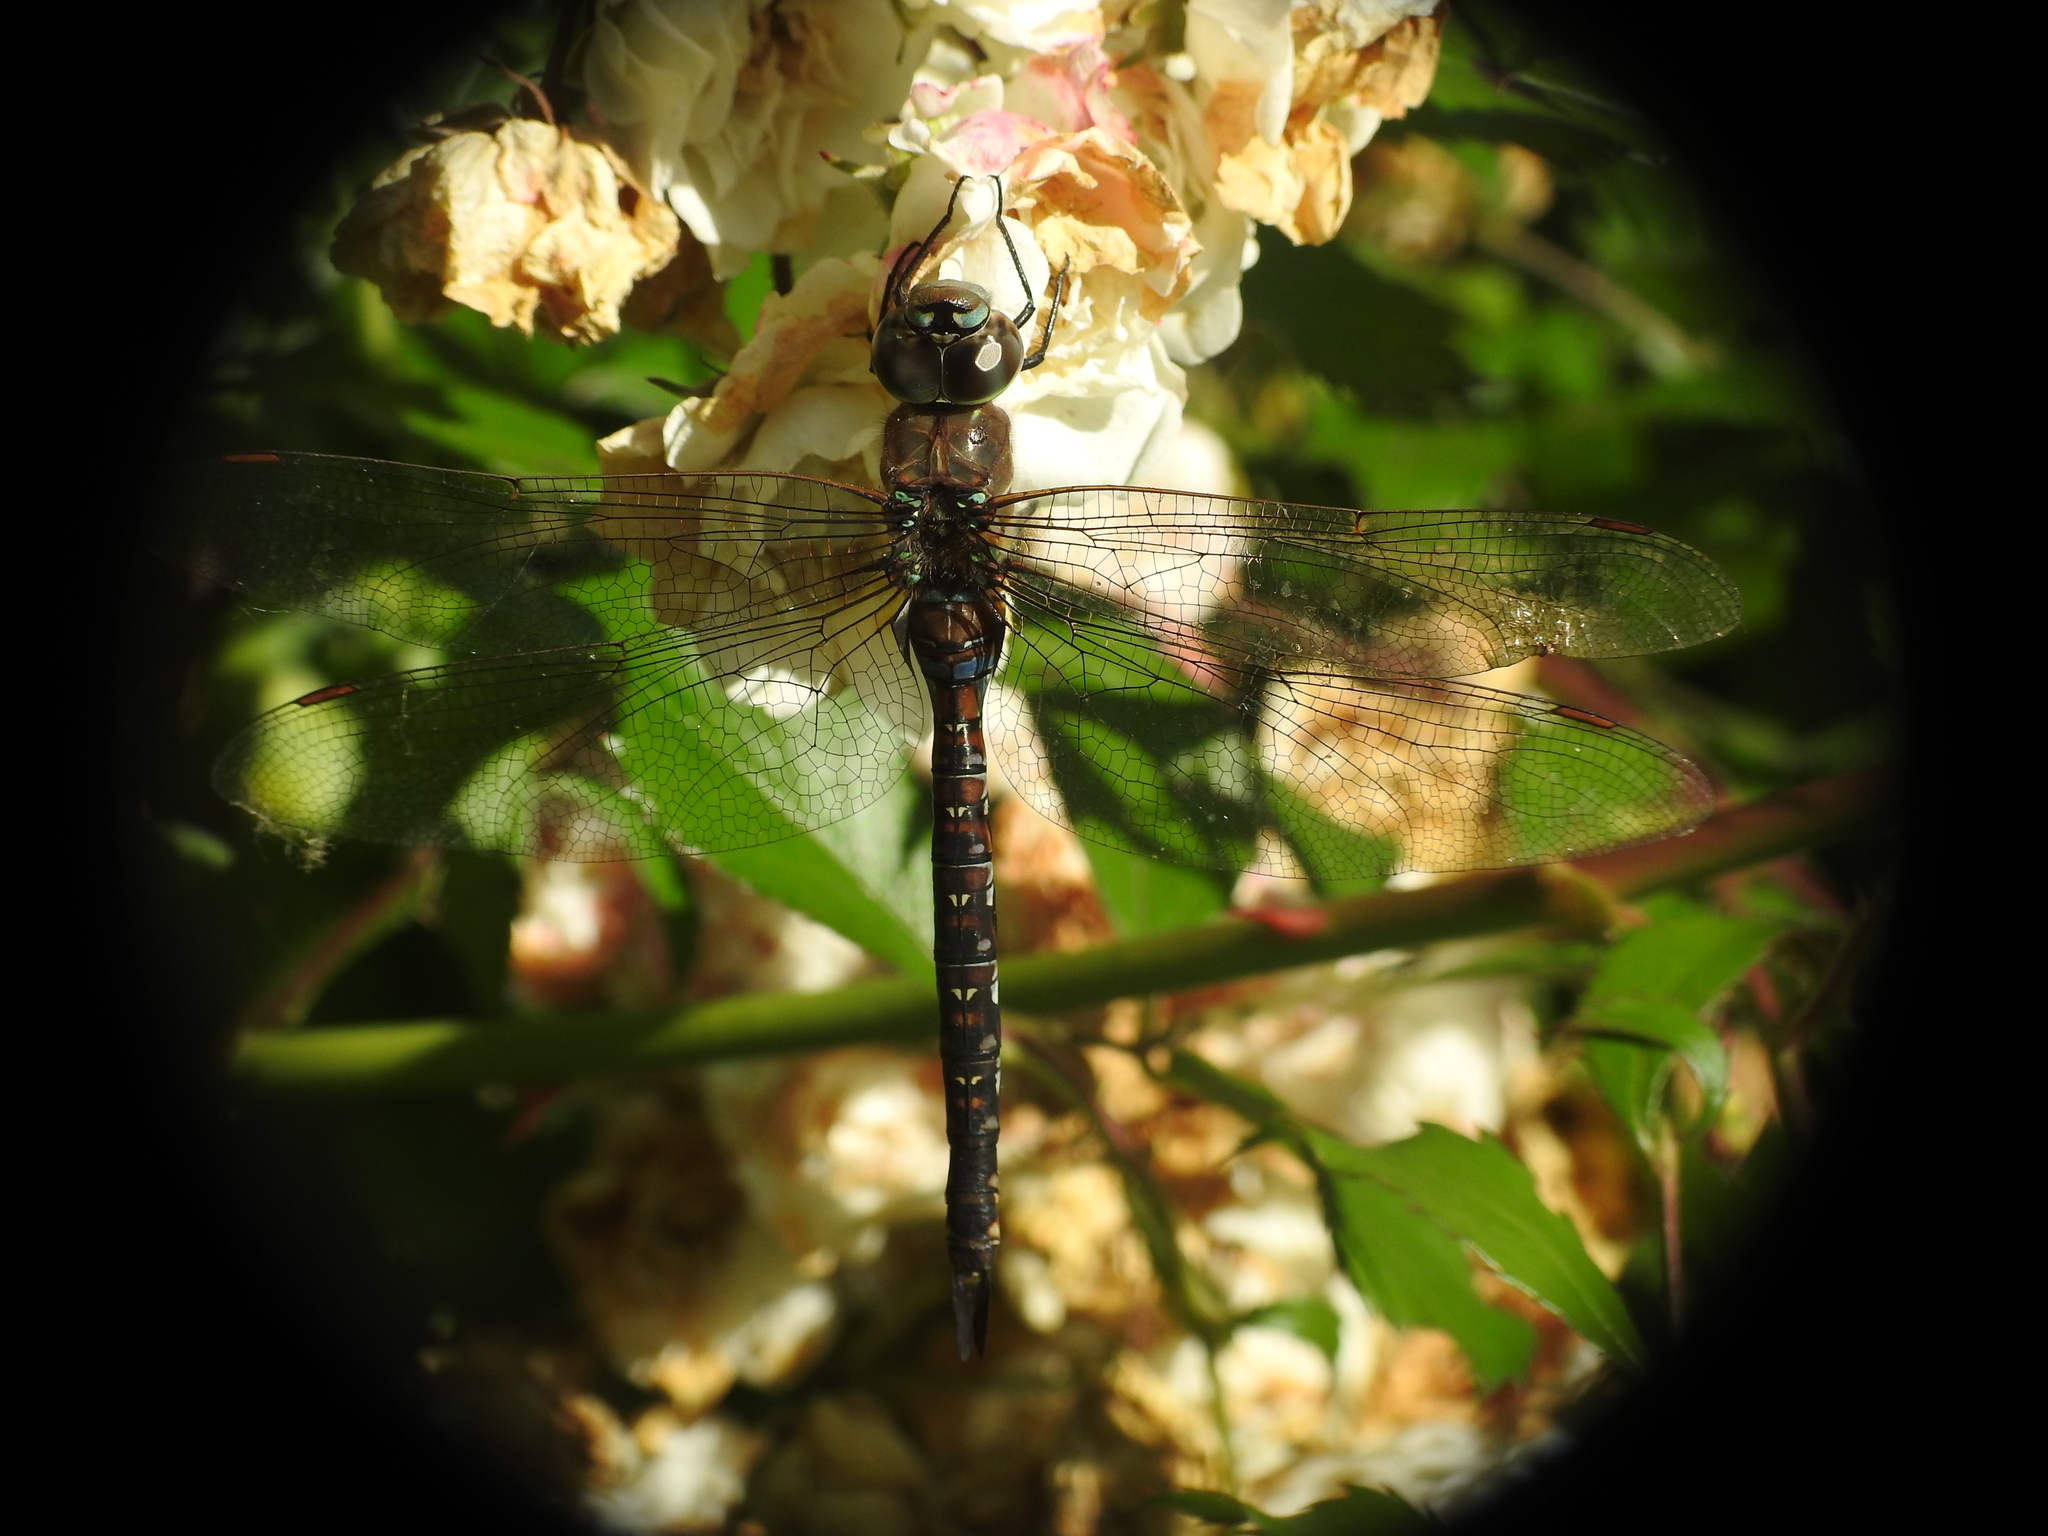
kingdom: Animalia
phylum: Arthropoda
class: Insecta
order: Odonata
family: Aeshnidae
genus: Rhionaeschna
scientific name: Rhionaeschna multicolor
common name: Blue-eyed darner
